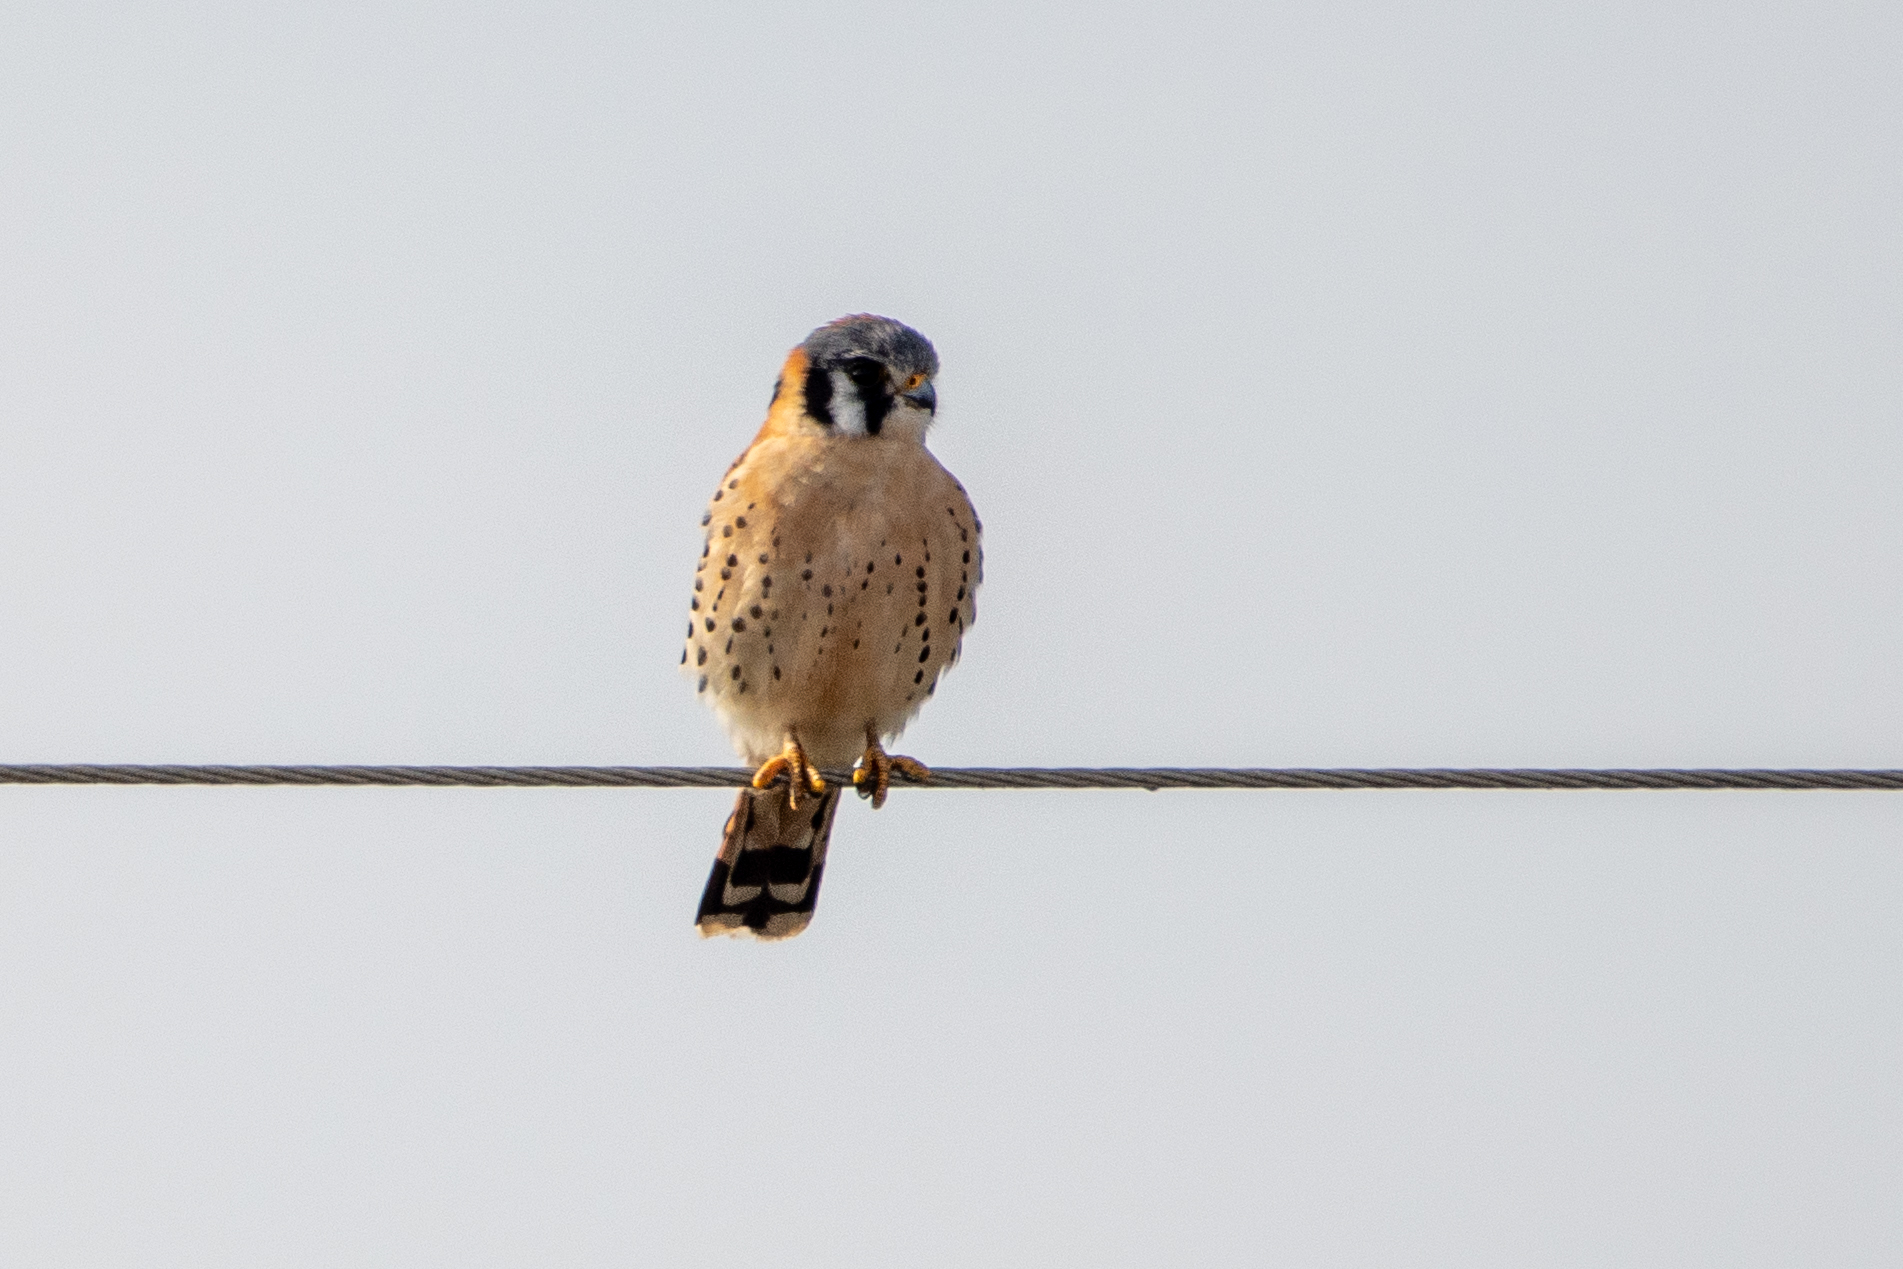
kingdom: Animalia
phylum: Chordata
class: Aves
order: Falconiformes
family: Falconidae
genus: Falco
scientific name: Falco sparverius
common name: American kestrel
